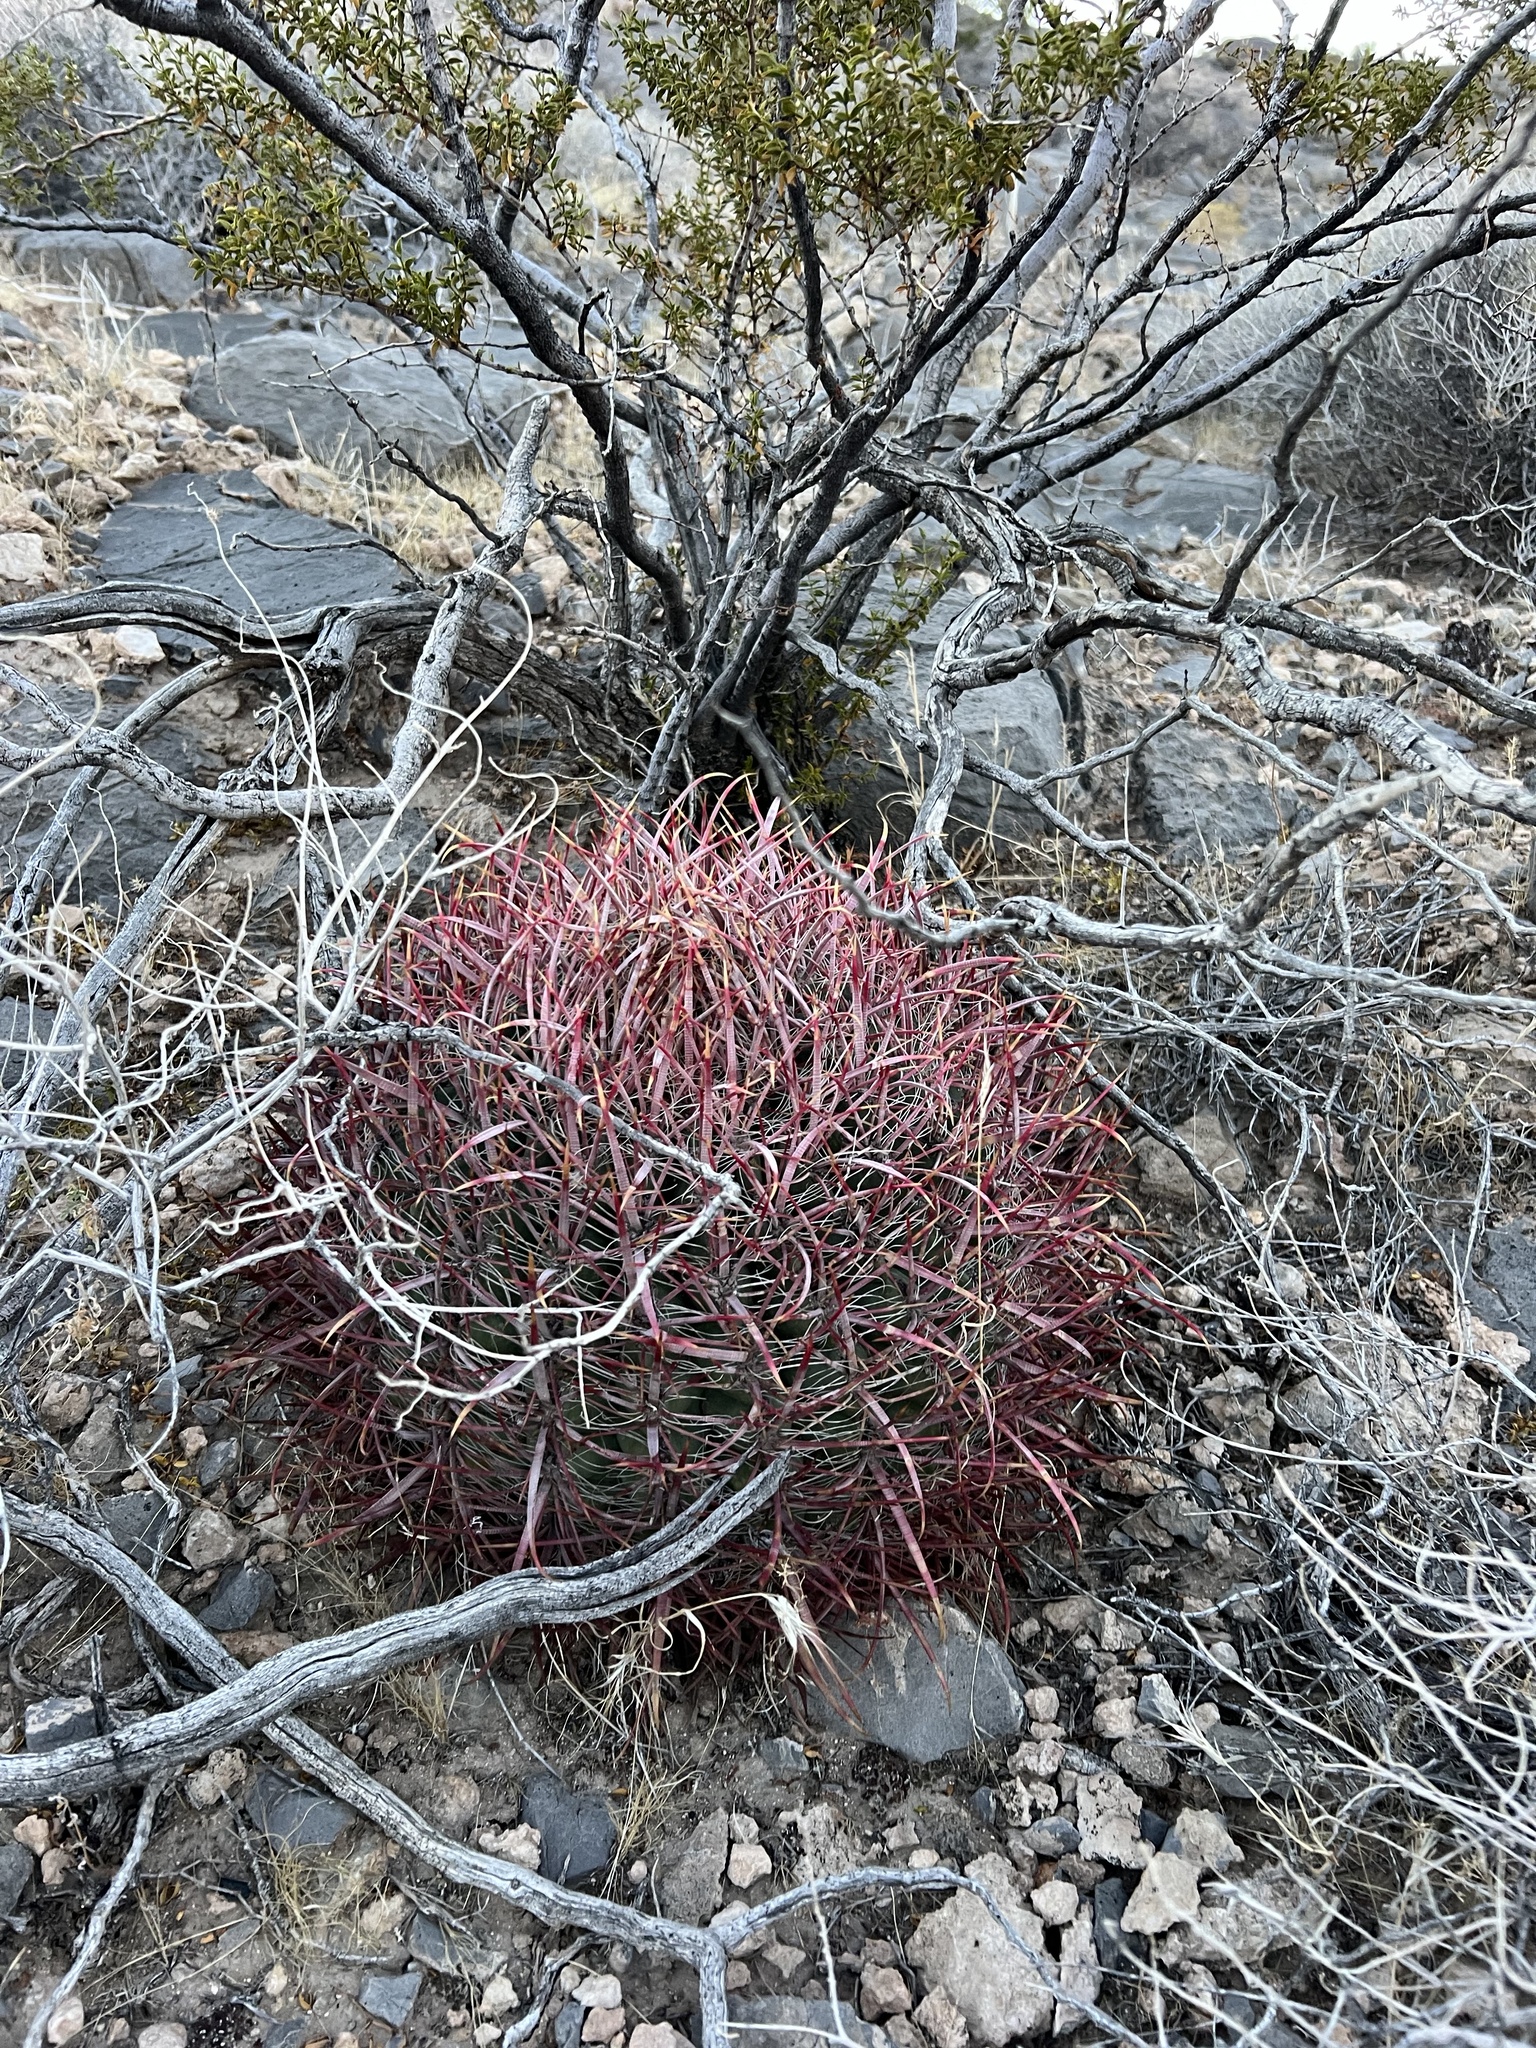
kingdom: Plantae
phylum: Tracheophyta
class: Magnoliopsida
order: Caryophyllales
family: Cactaceae
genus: Ferocactus
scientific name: Ferocactus cylindraceus
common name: California barrel cactus
